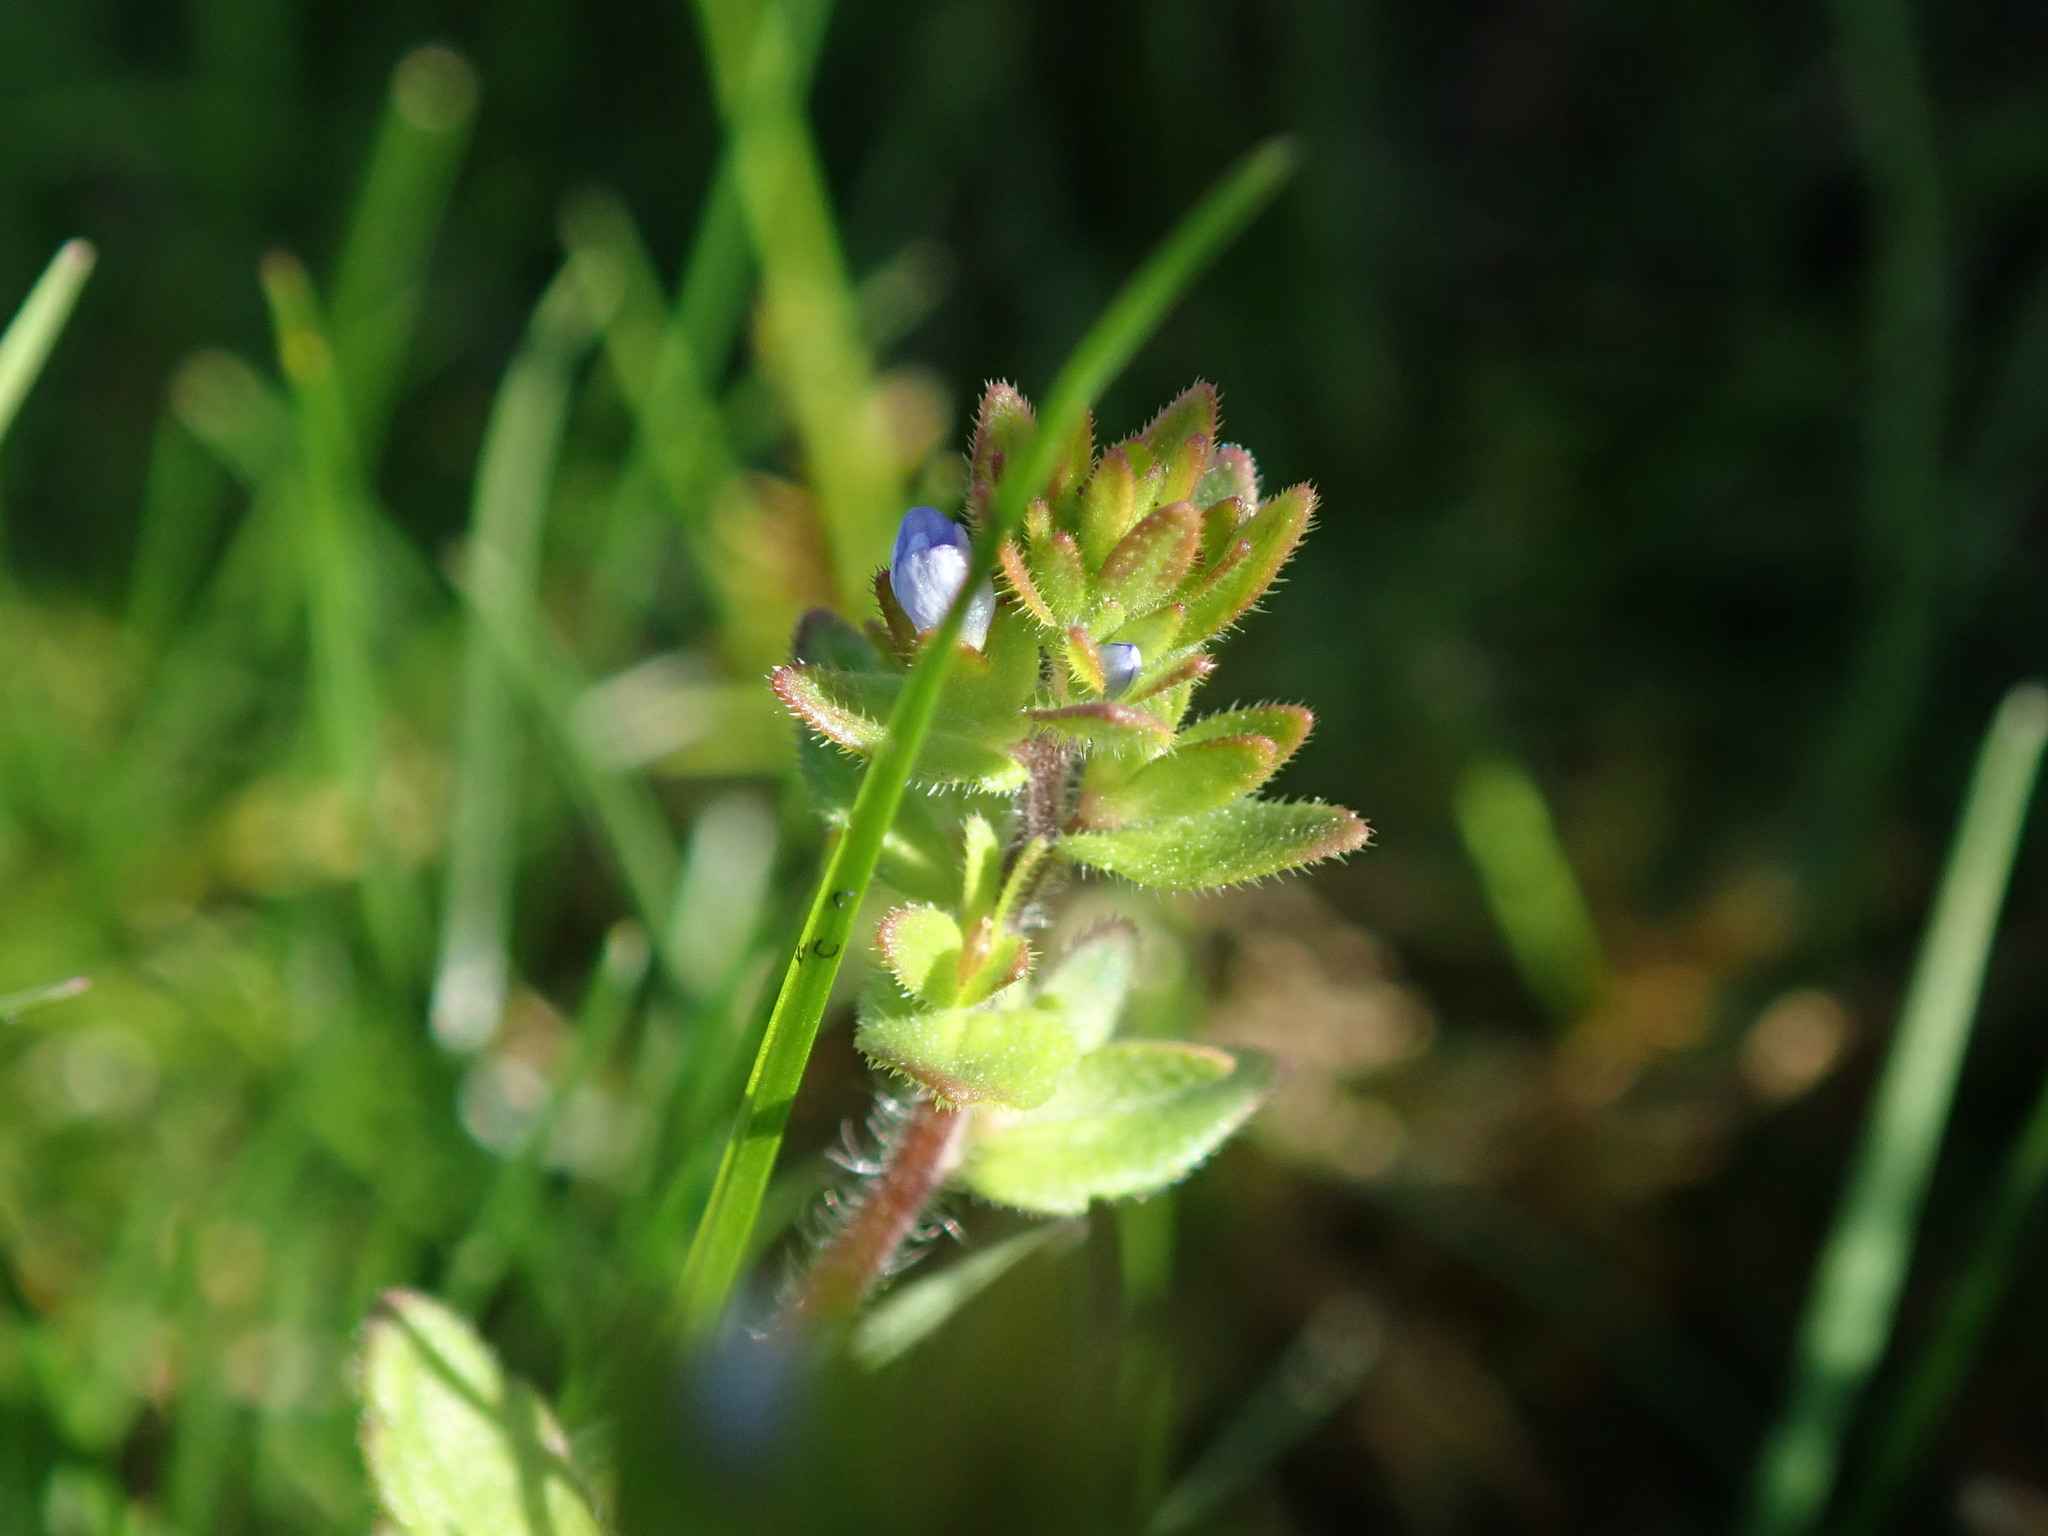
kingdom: Plantae
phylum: Tracheophyta
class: Magnoliopsida
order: Lamiales
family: Plantaginaceae
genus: Veronica
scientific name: Veronica arvensis
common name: Corn speedwell
